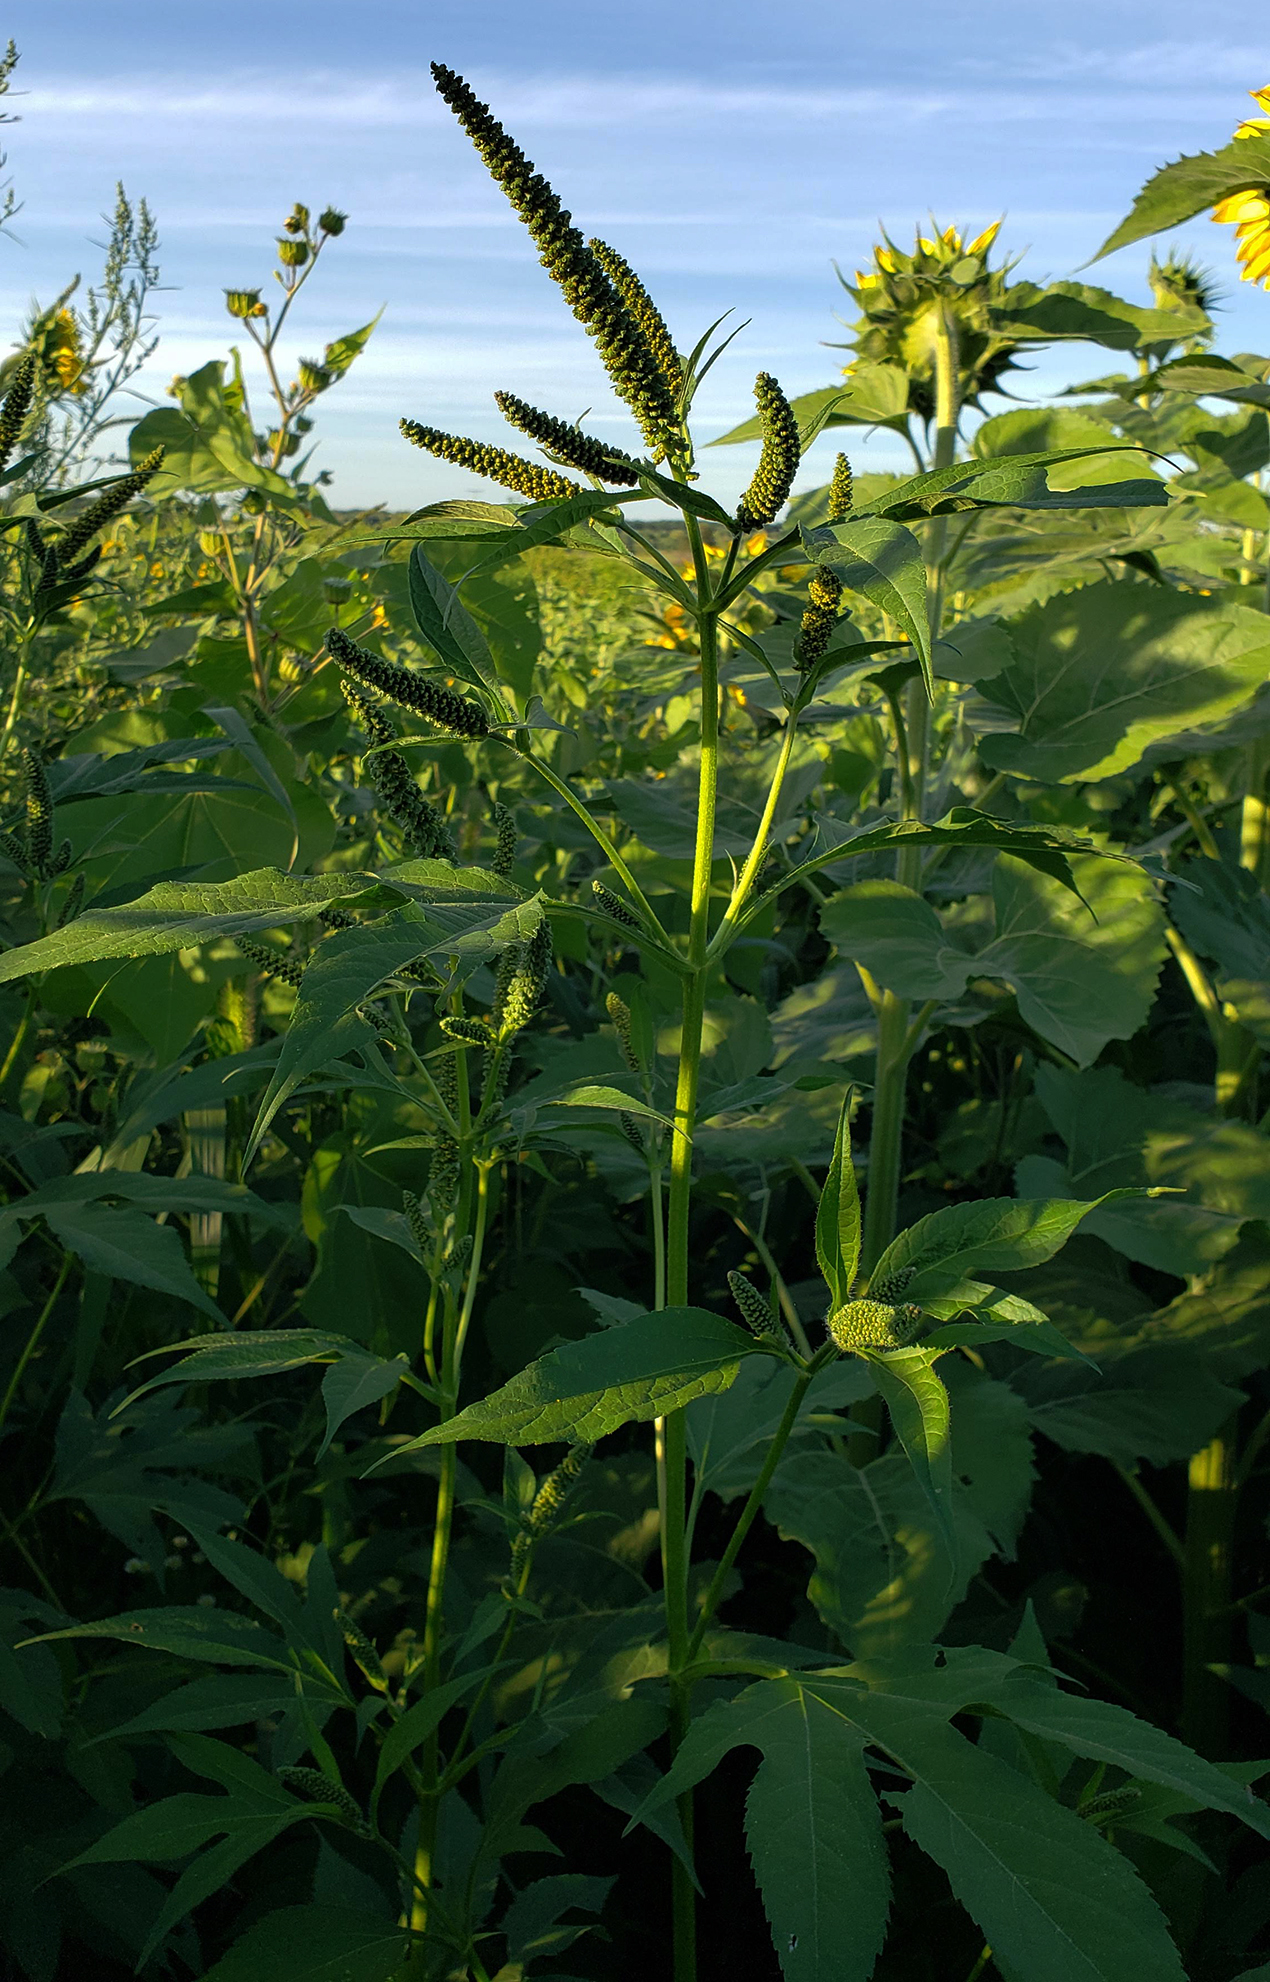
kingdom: Plantae
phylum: Tracheophyta
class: Magnoliopsida
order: Asterales
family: Asteraceae
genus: Ambrosia
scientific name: Ambrosia trifida
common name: Giant ragweed
